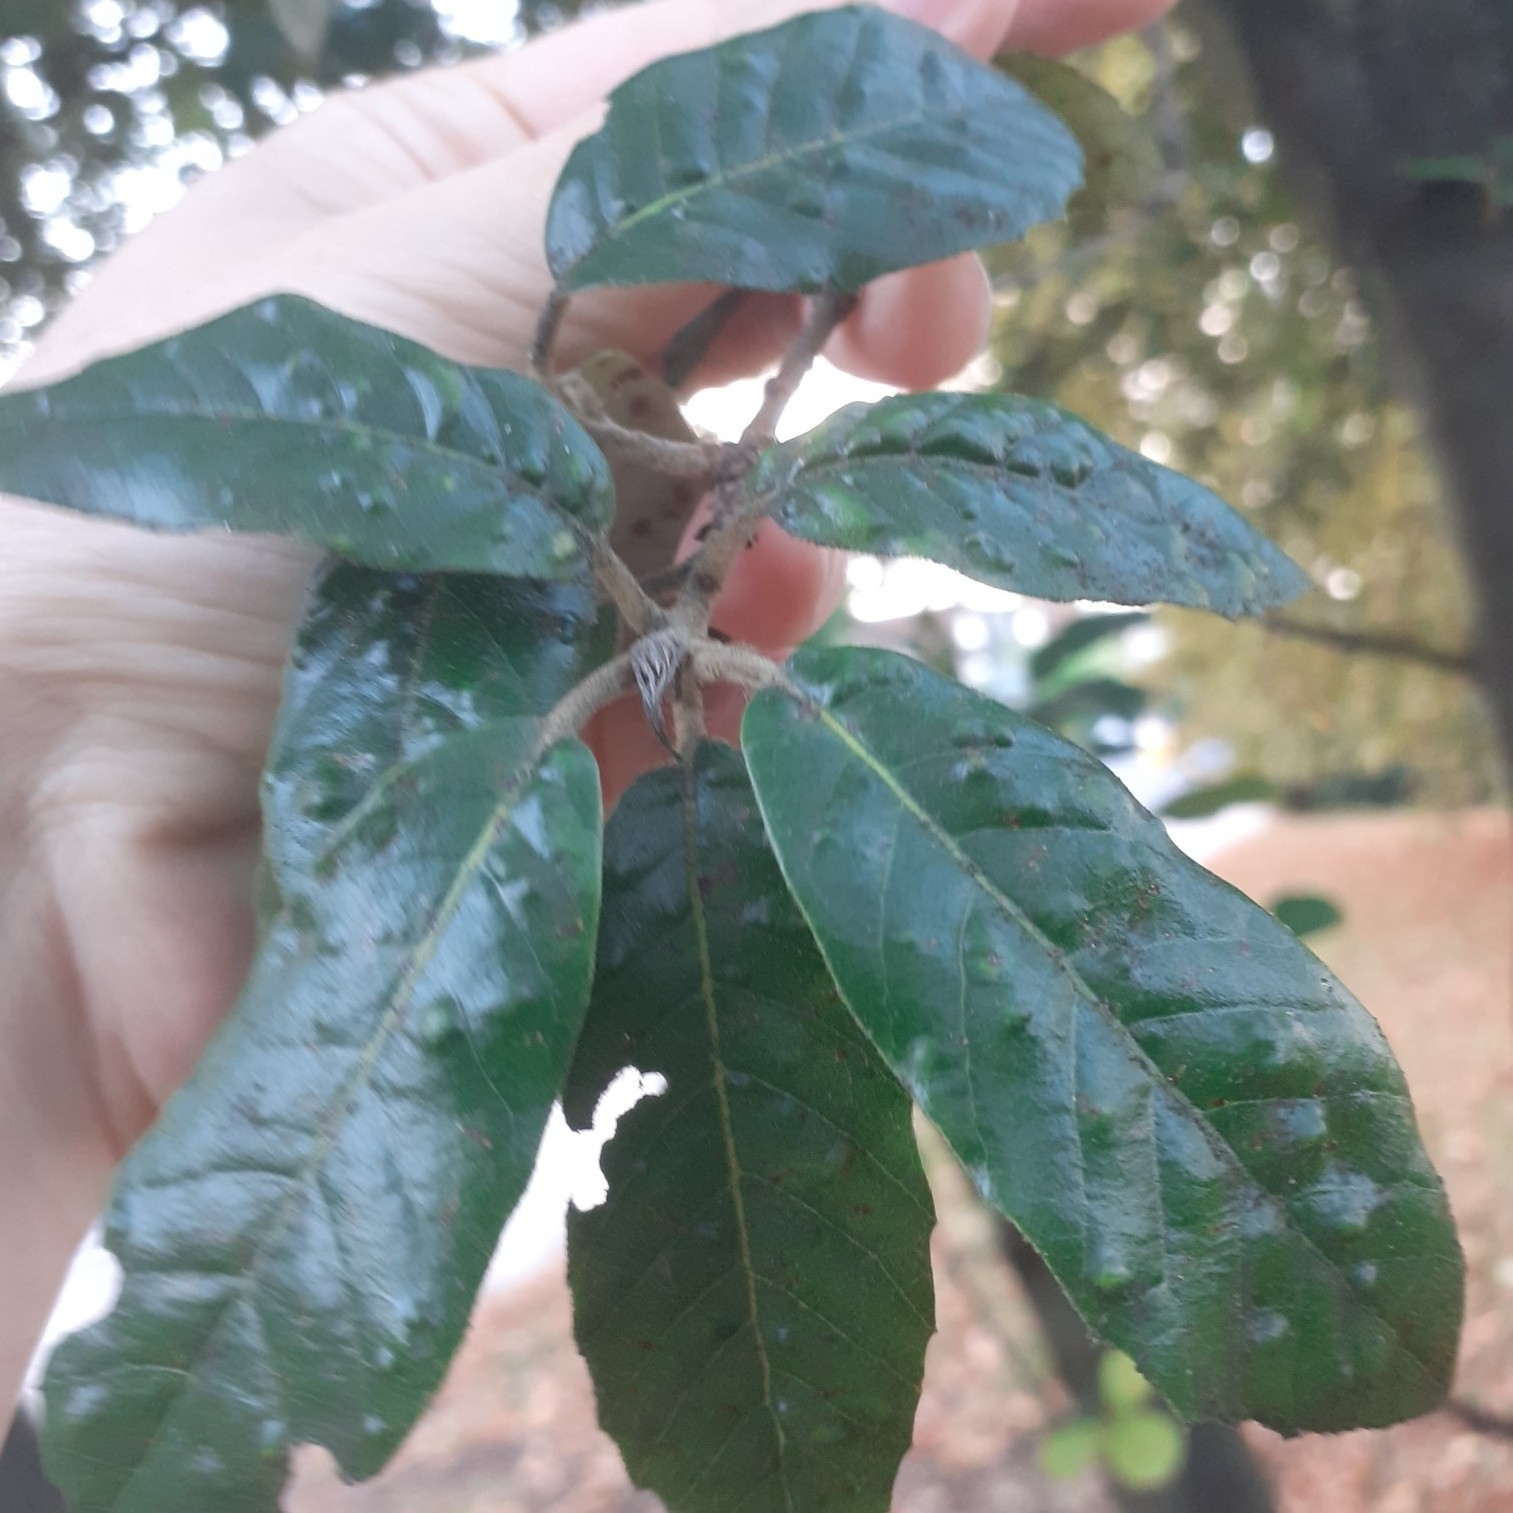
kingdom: Animalia
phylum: Arthropoda
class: Arachnida
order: Trombidiformes
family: Eriophyidae
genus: Aceria
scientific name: Aceria ilicis
